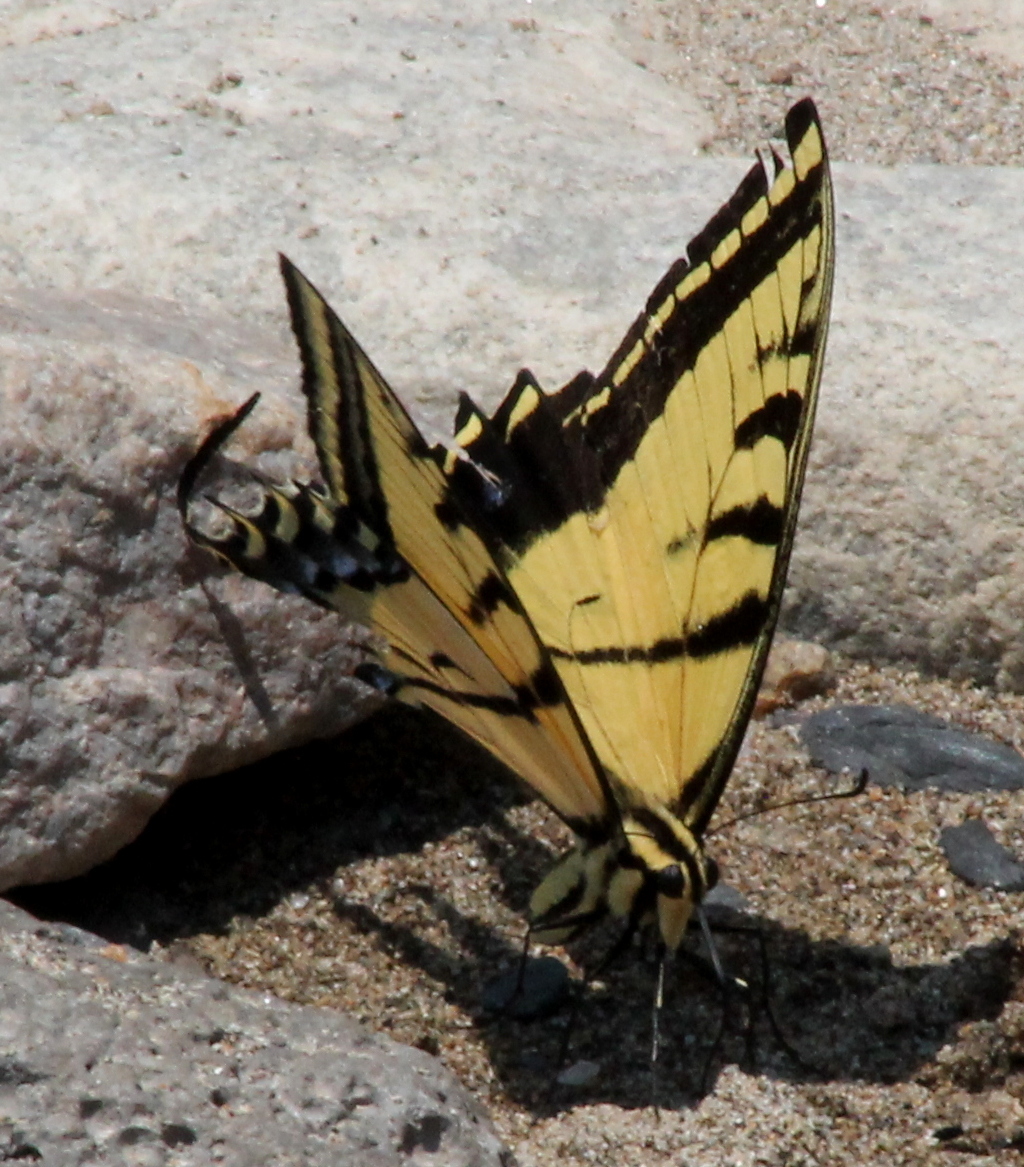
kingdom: Animalia
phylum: Arthropoda
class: Insecta
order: Lepidoptera
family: Papilionidae
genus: Papilio
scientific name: Papilio multicaudata
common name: Two-tailed tiger swallowtail
